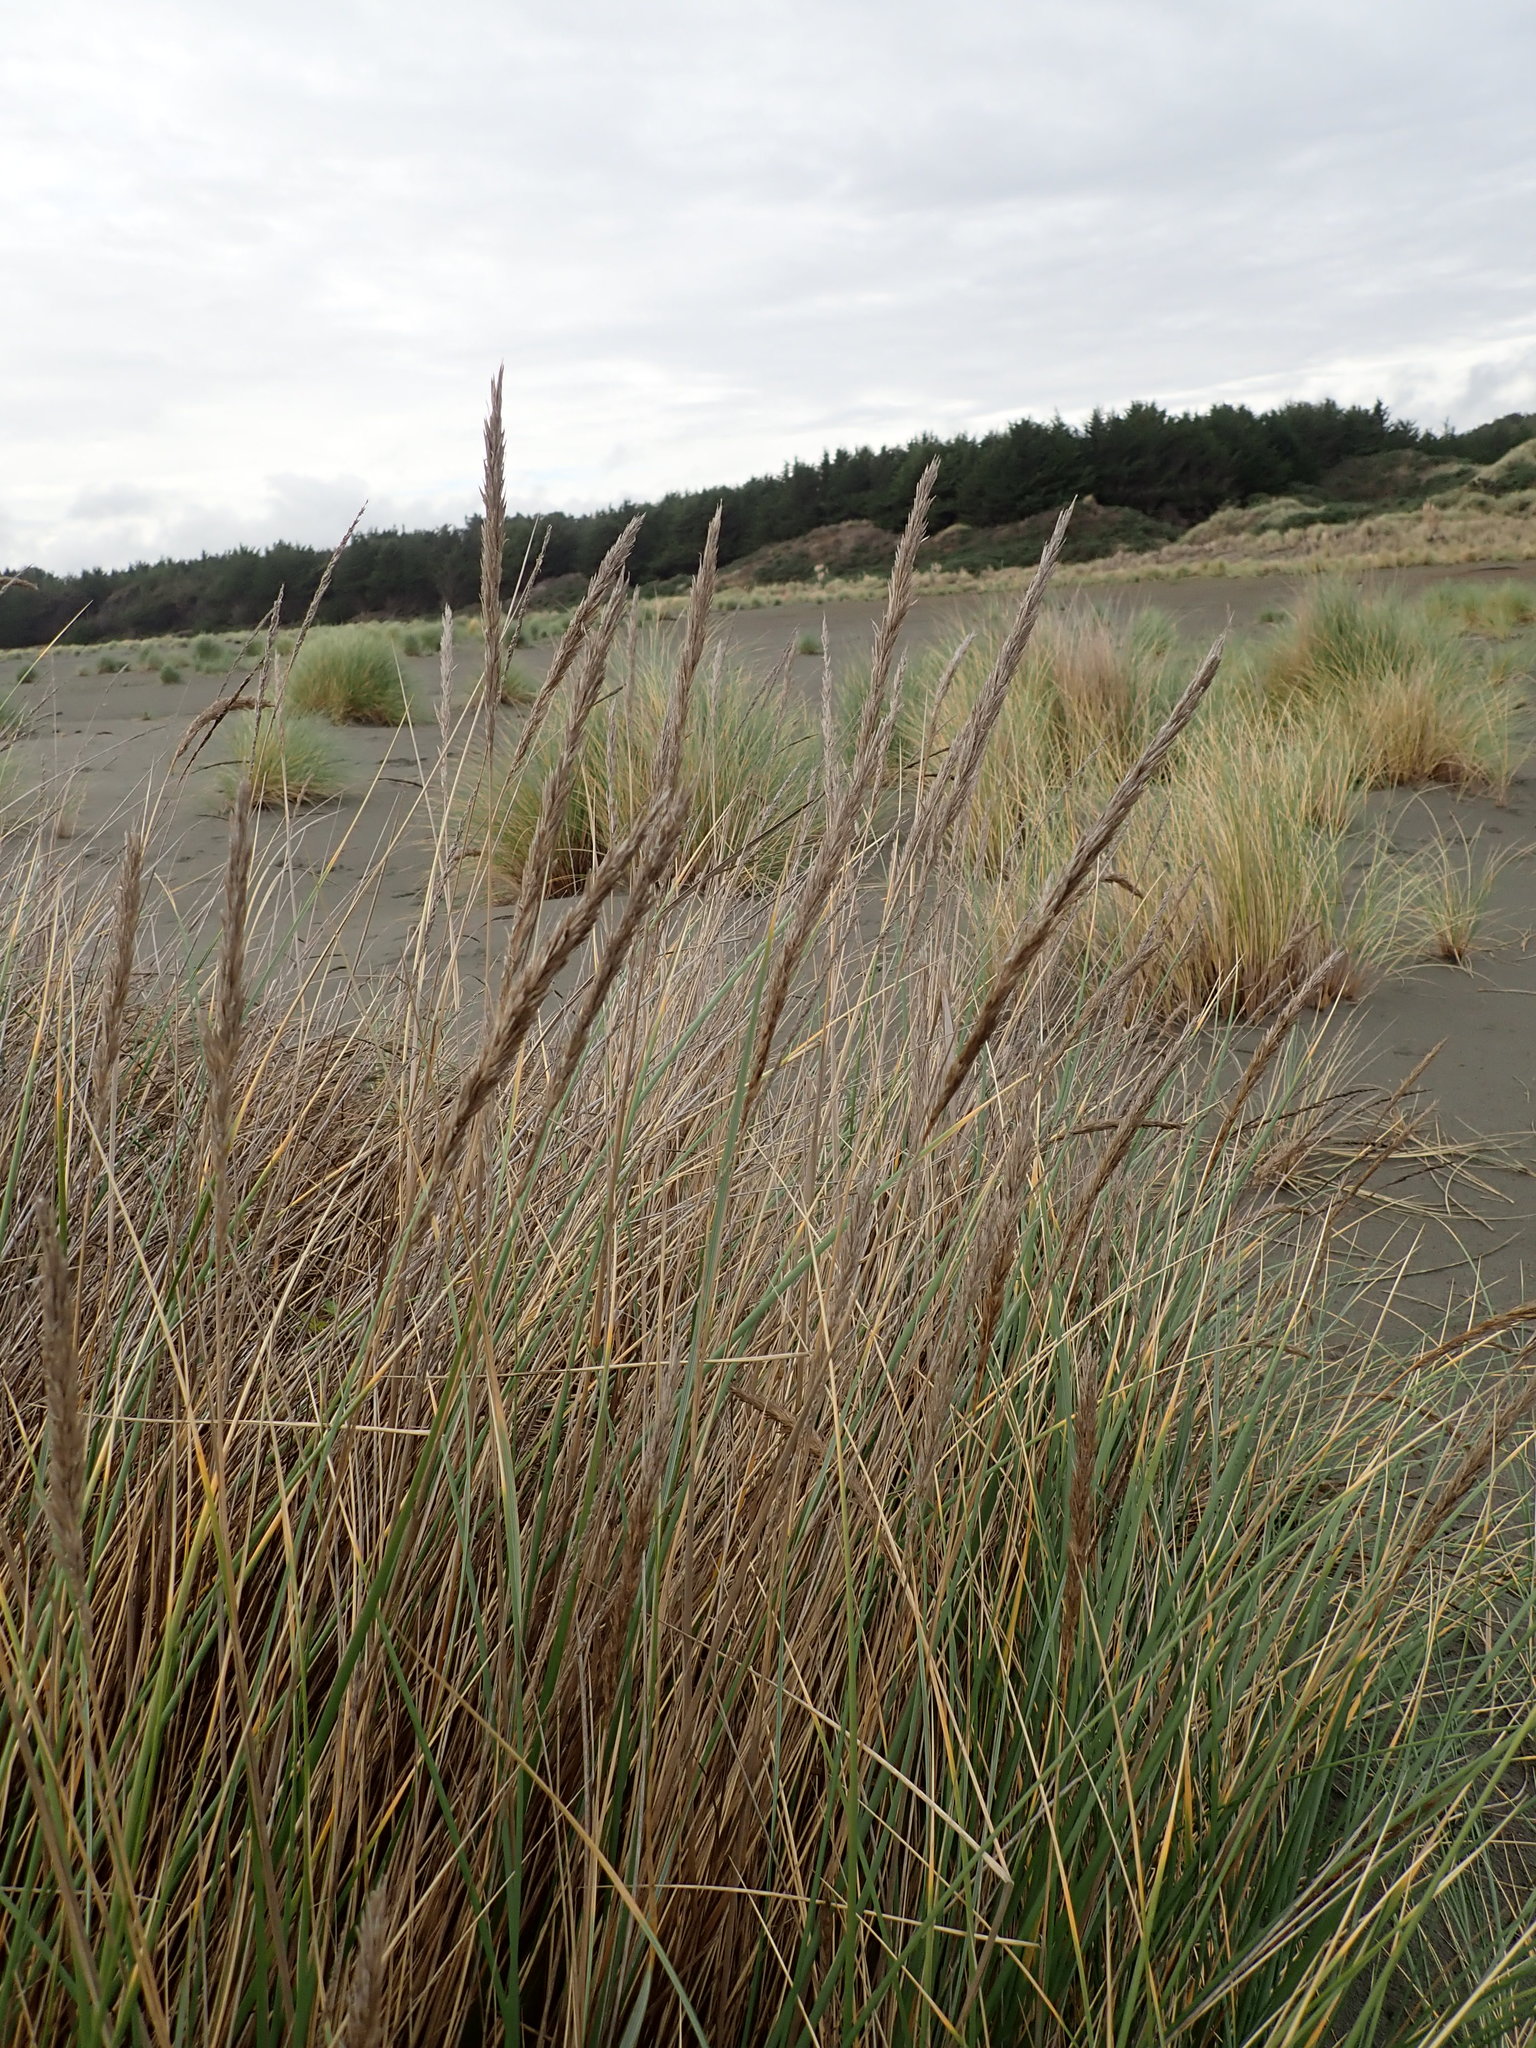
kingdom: Plantae
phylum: Tracheophyta
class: Liliopsida
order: Poales
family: Poaceae
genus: Calamagrostis
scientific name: Calamagrostis arenaria
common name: European beachgrass
